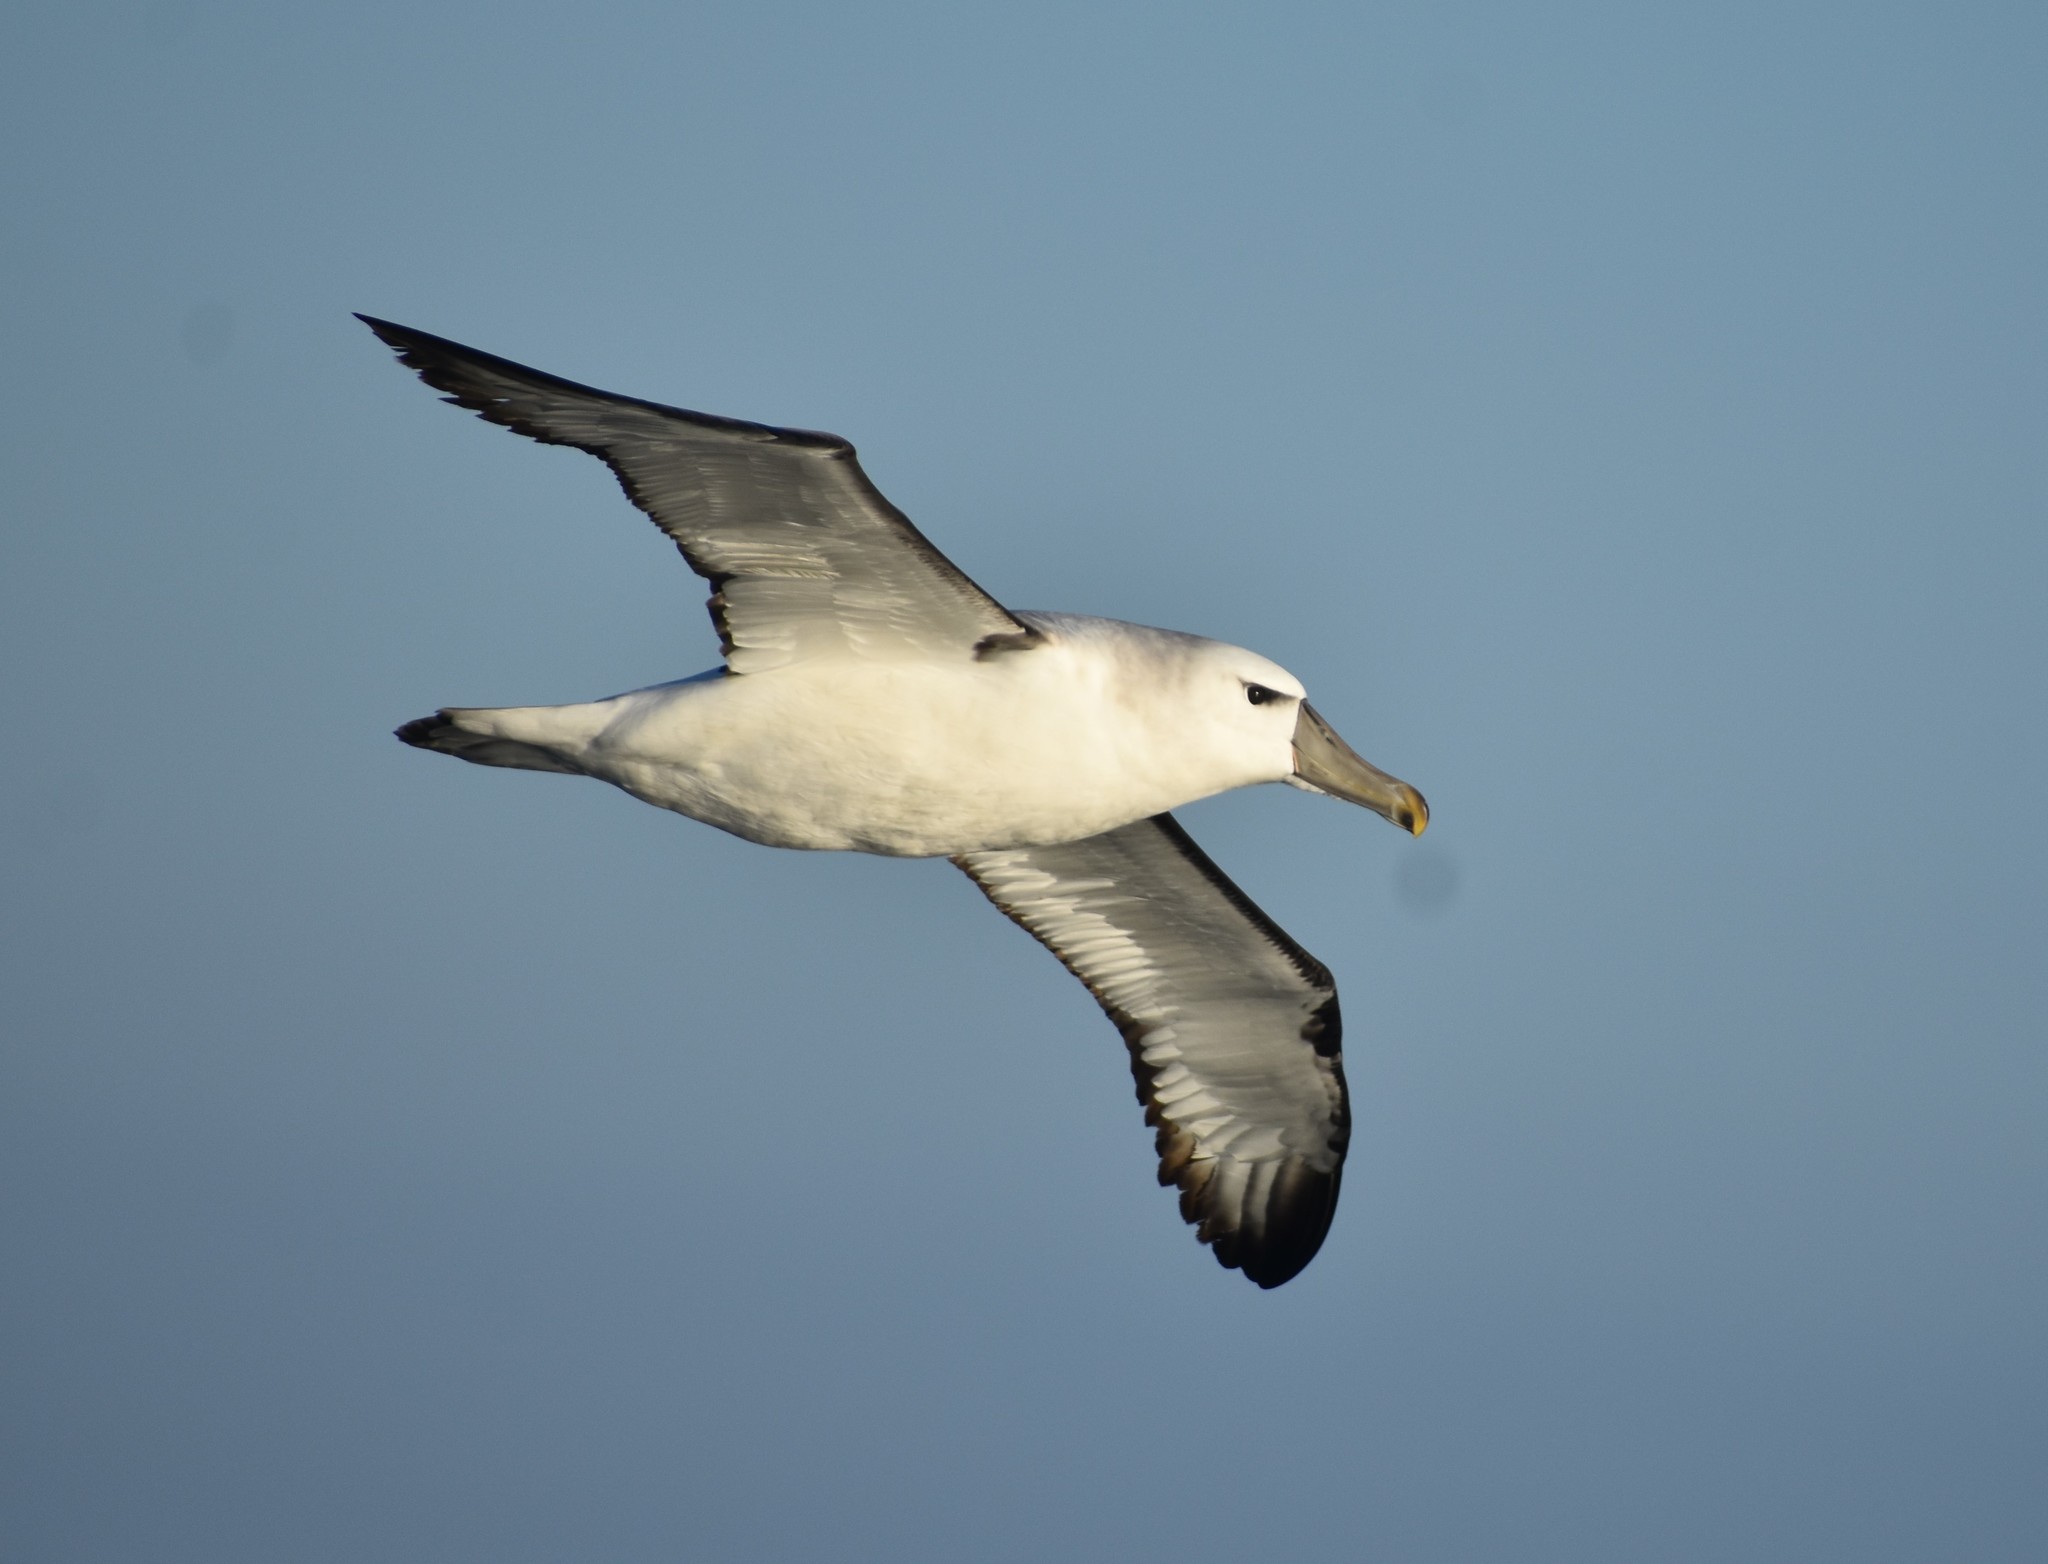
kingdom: Animalia
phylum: Chordata
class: Aves
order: Procellariiformes
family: Diomedeidae
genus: Thalassarche
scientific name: Thalassarche cauta
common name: Shy albatross
